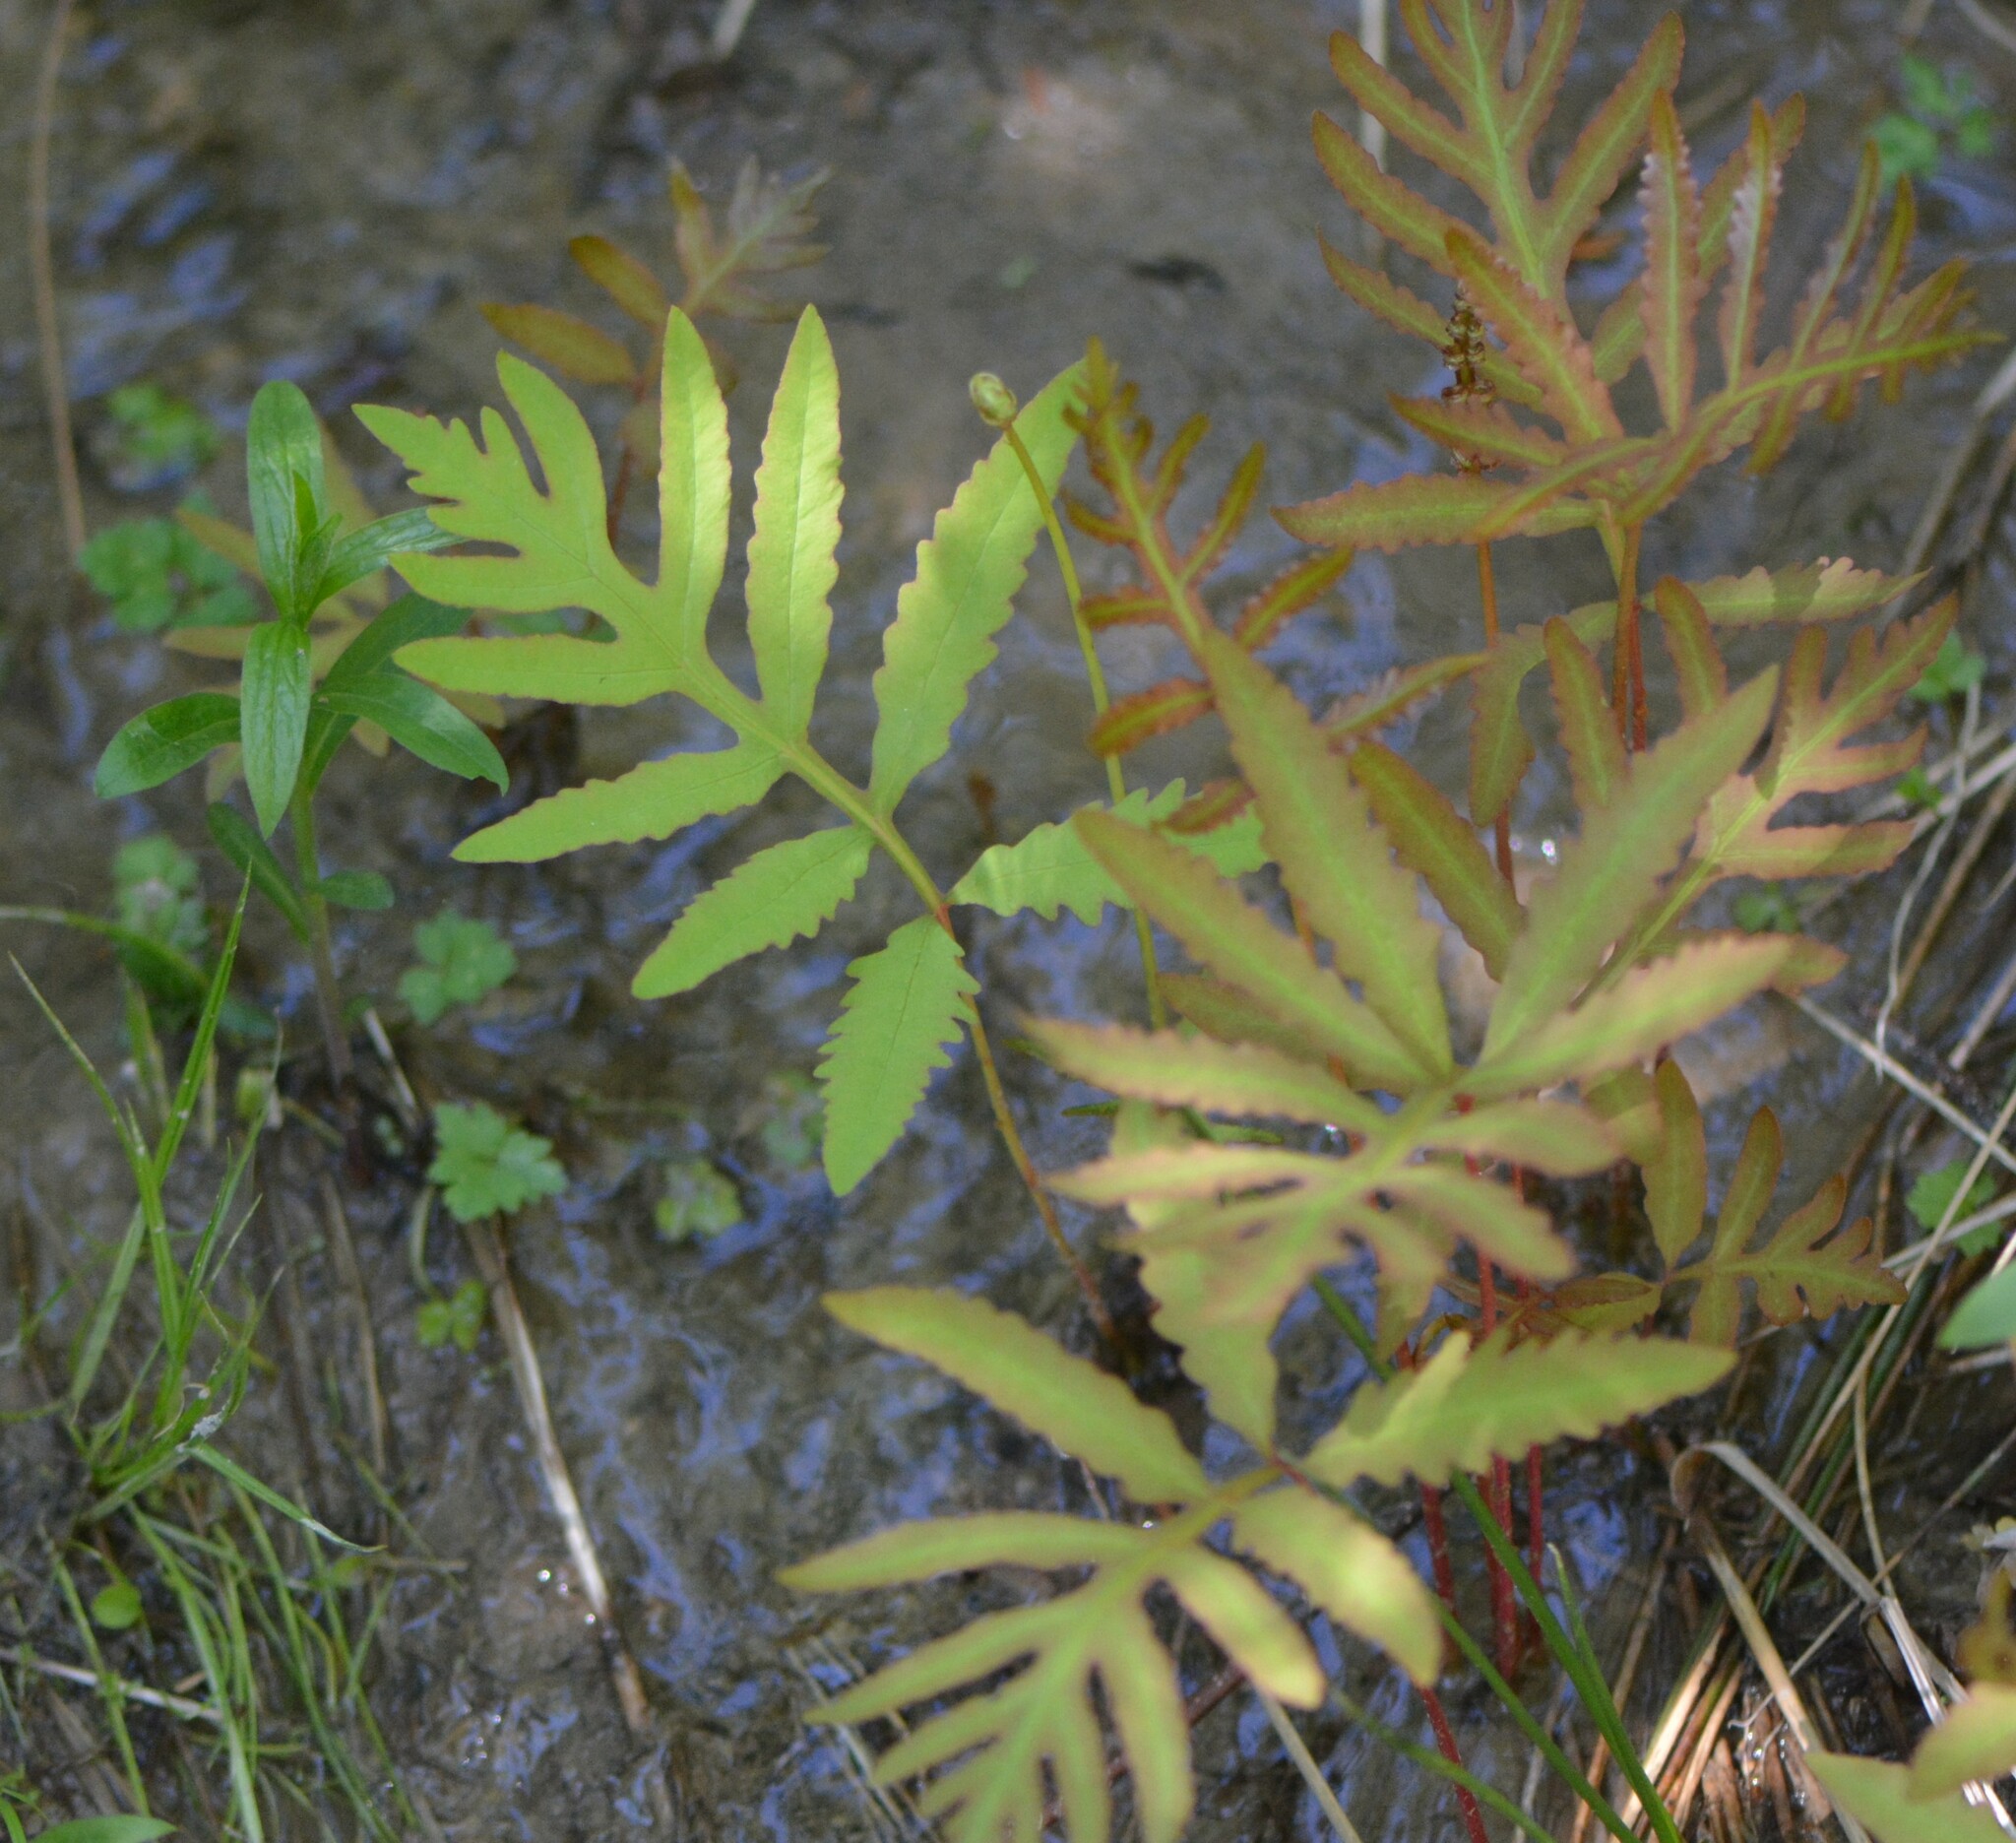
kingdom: Plantae
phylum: Tracheophyta
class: Polypodiopsida
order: Polypodiales
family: Onocleaceae
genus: Onoclea
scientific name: Onoclea sensibilis
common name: Sensitive fern
